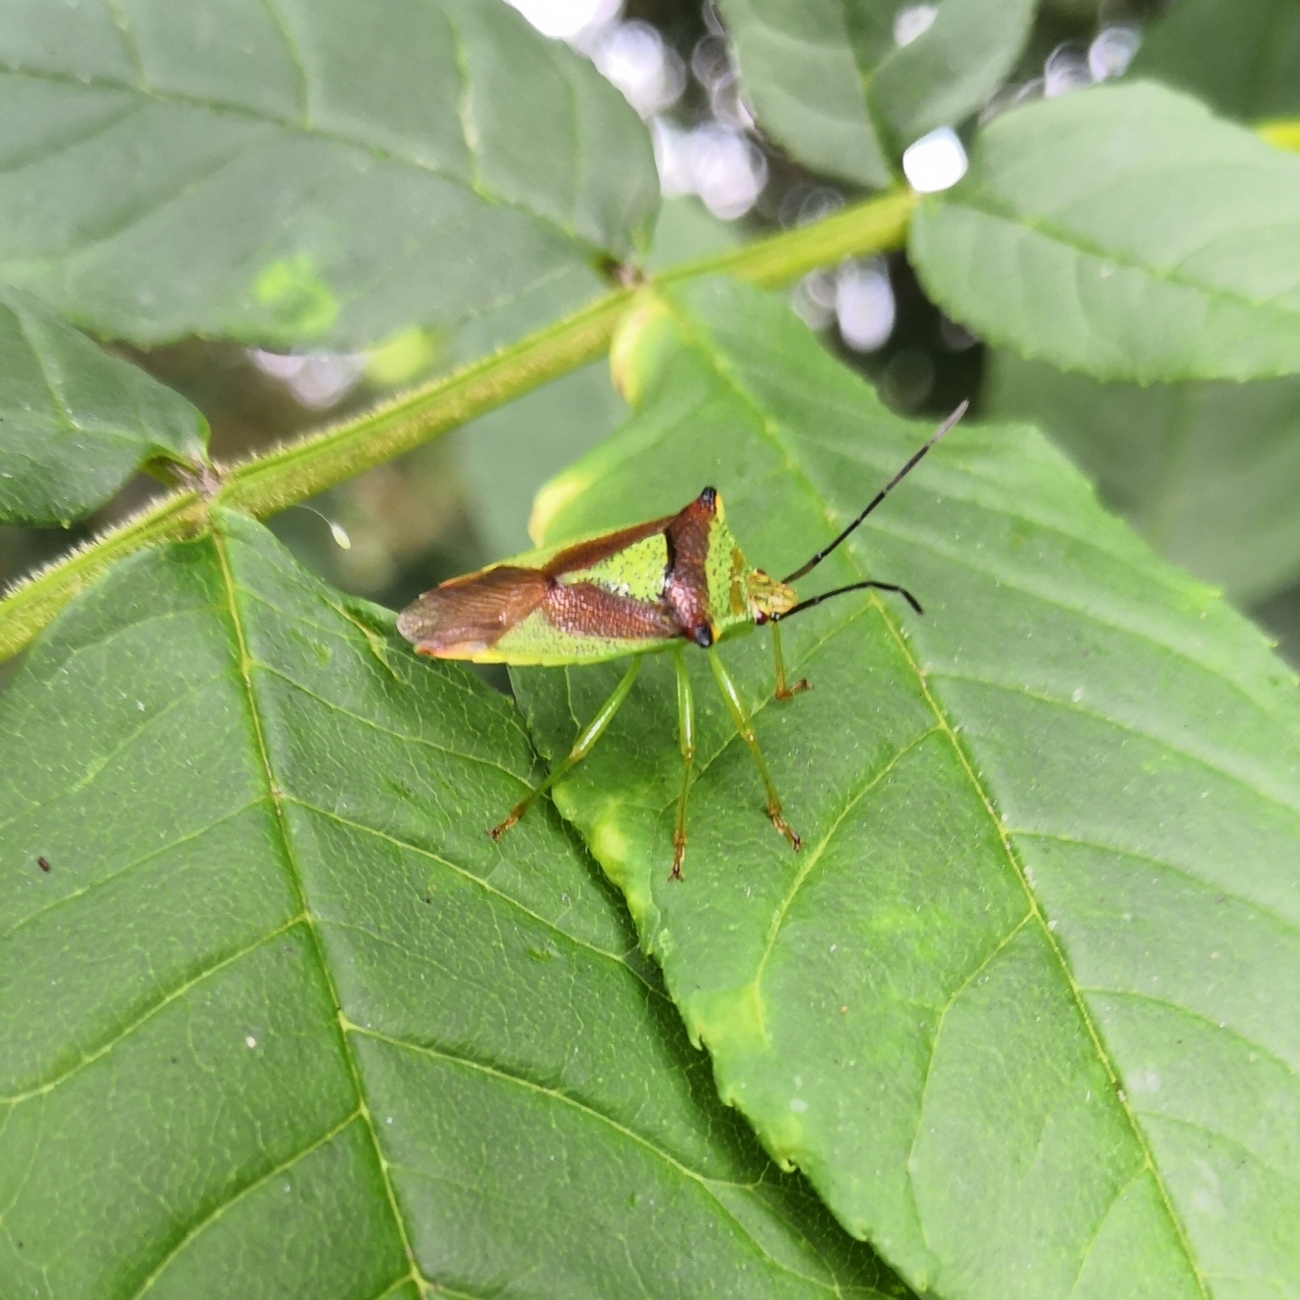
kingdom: Animalia
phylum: Arthropoda
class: Insecta
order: Hemiptera
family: Acanthosomatidae
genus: Acanthosoma
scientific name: Acanthosoma haemorrhoidale
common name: Hawthorn shieldbug
